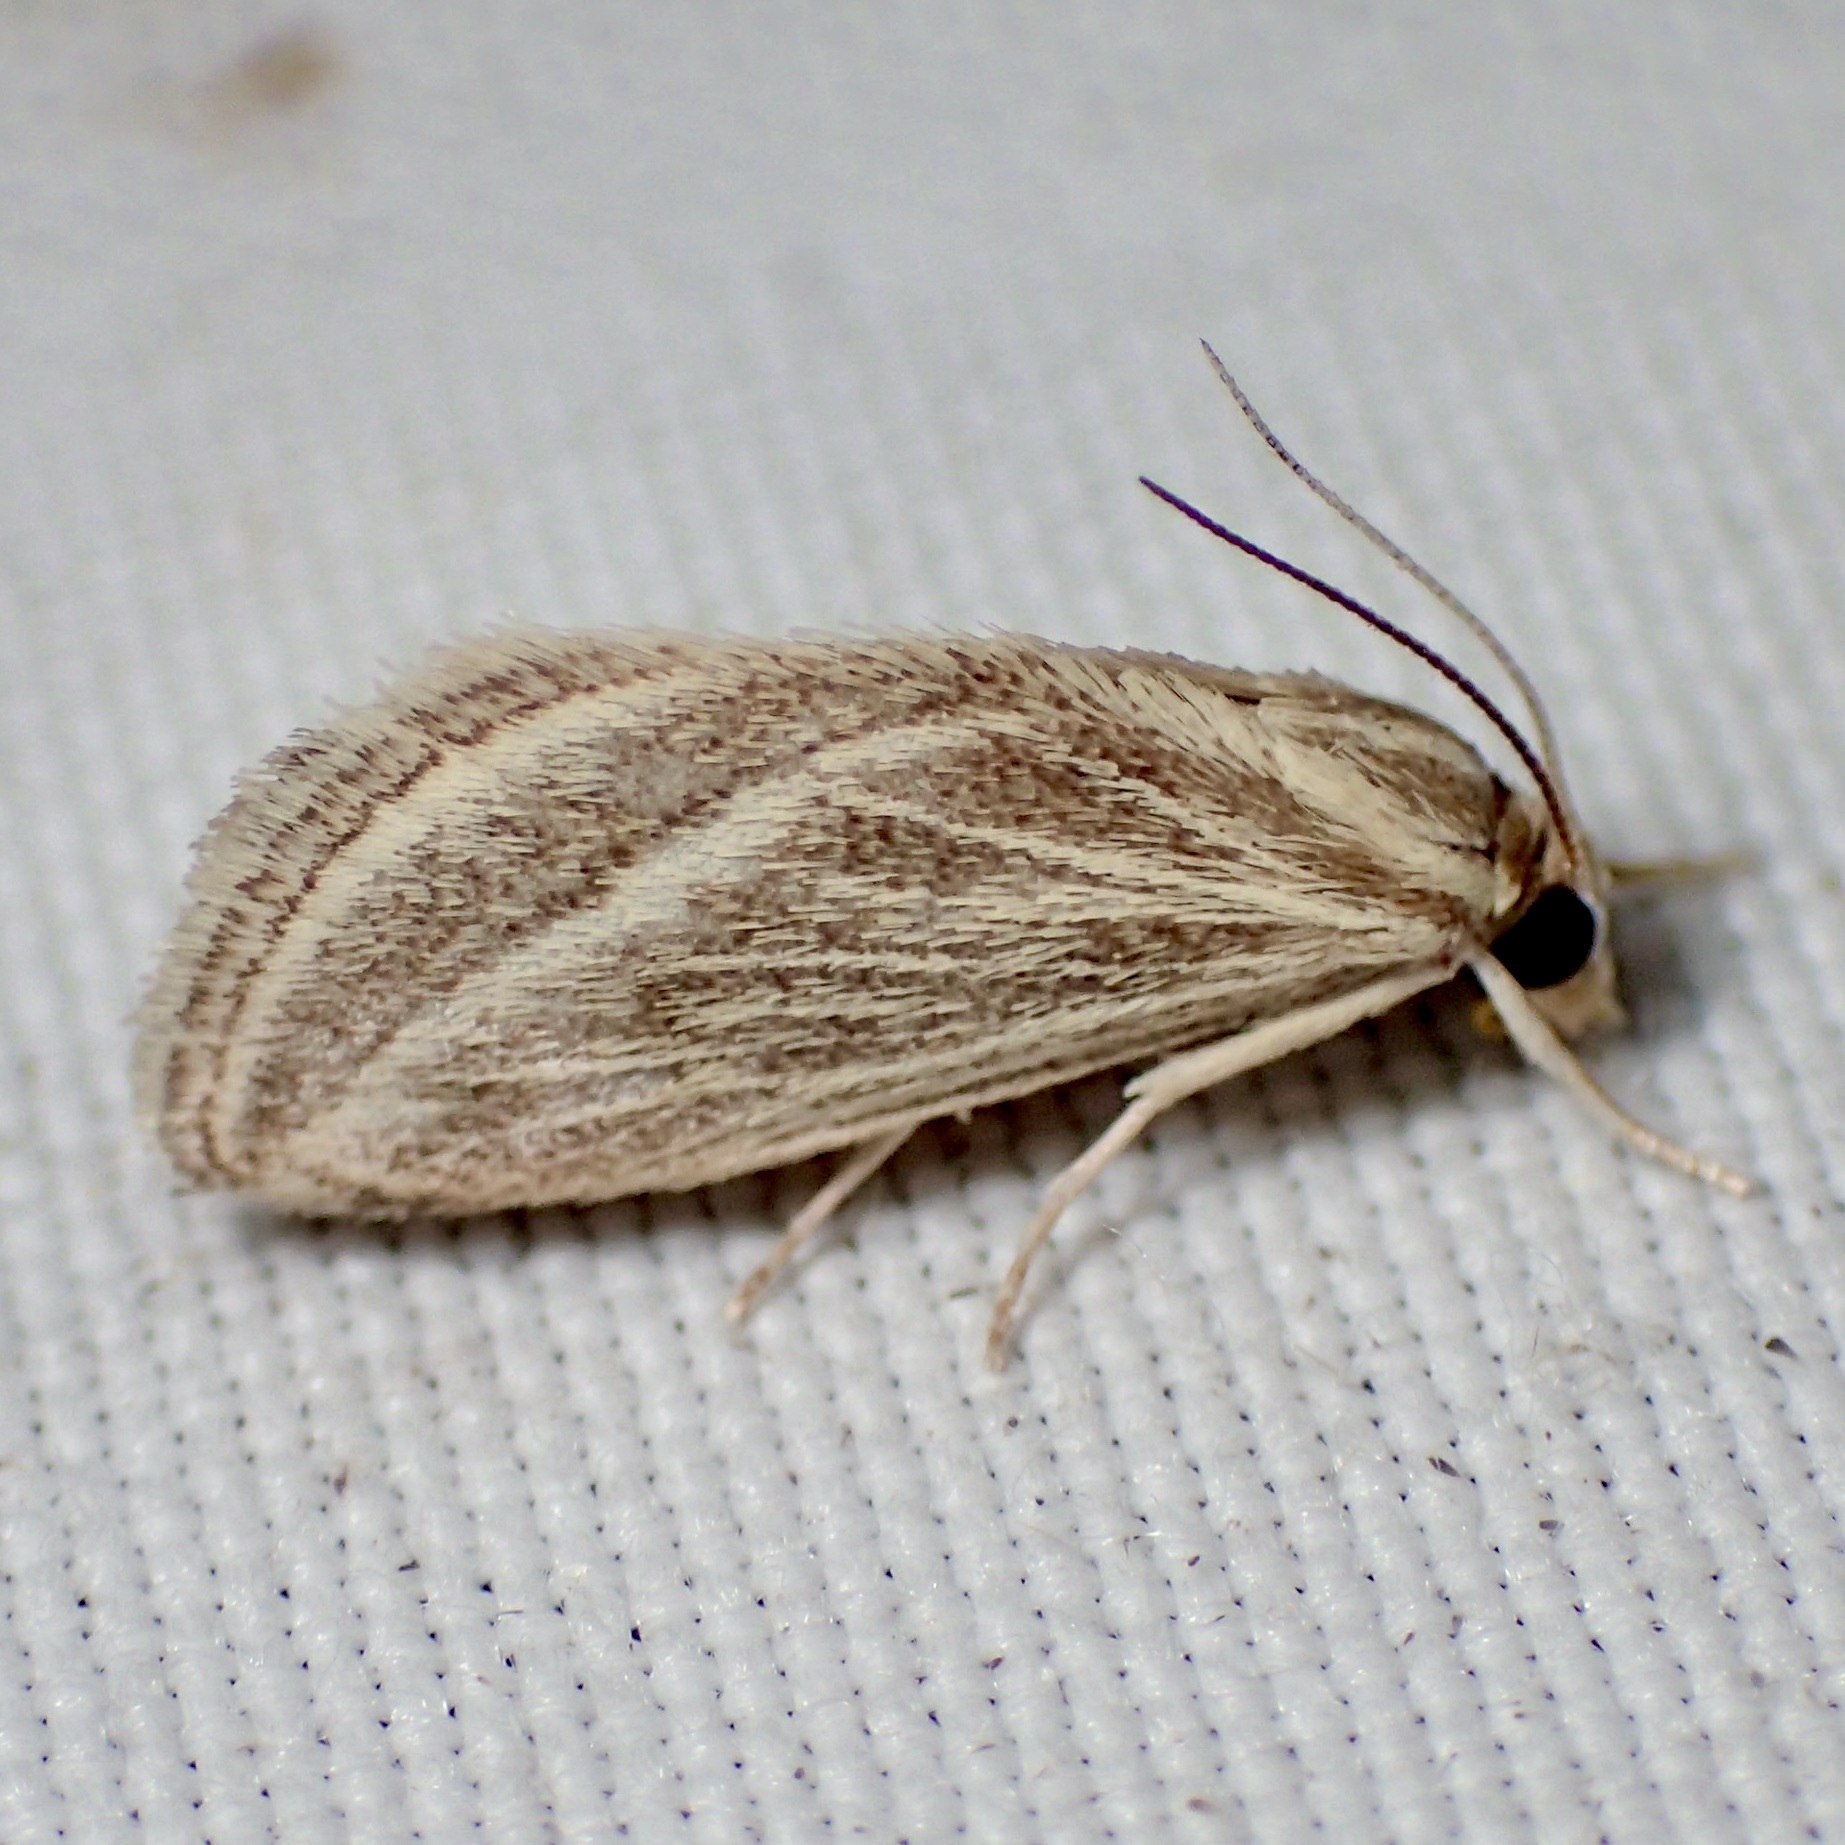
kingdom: Animalia
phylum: Arthropoda
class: Insecta
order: Lepidoptera
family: Crambidae
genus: Procymbopteryx
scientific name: Procymbopteryx belialis
